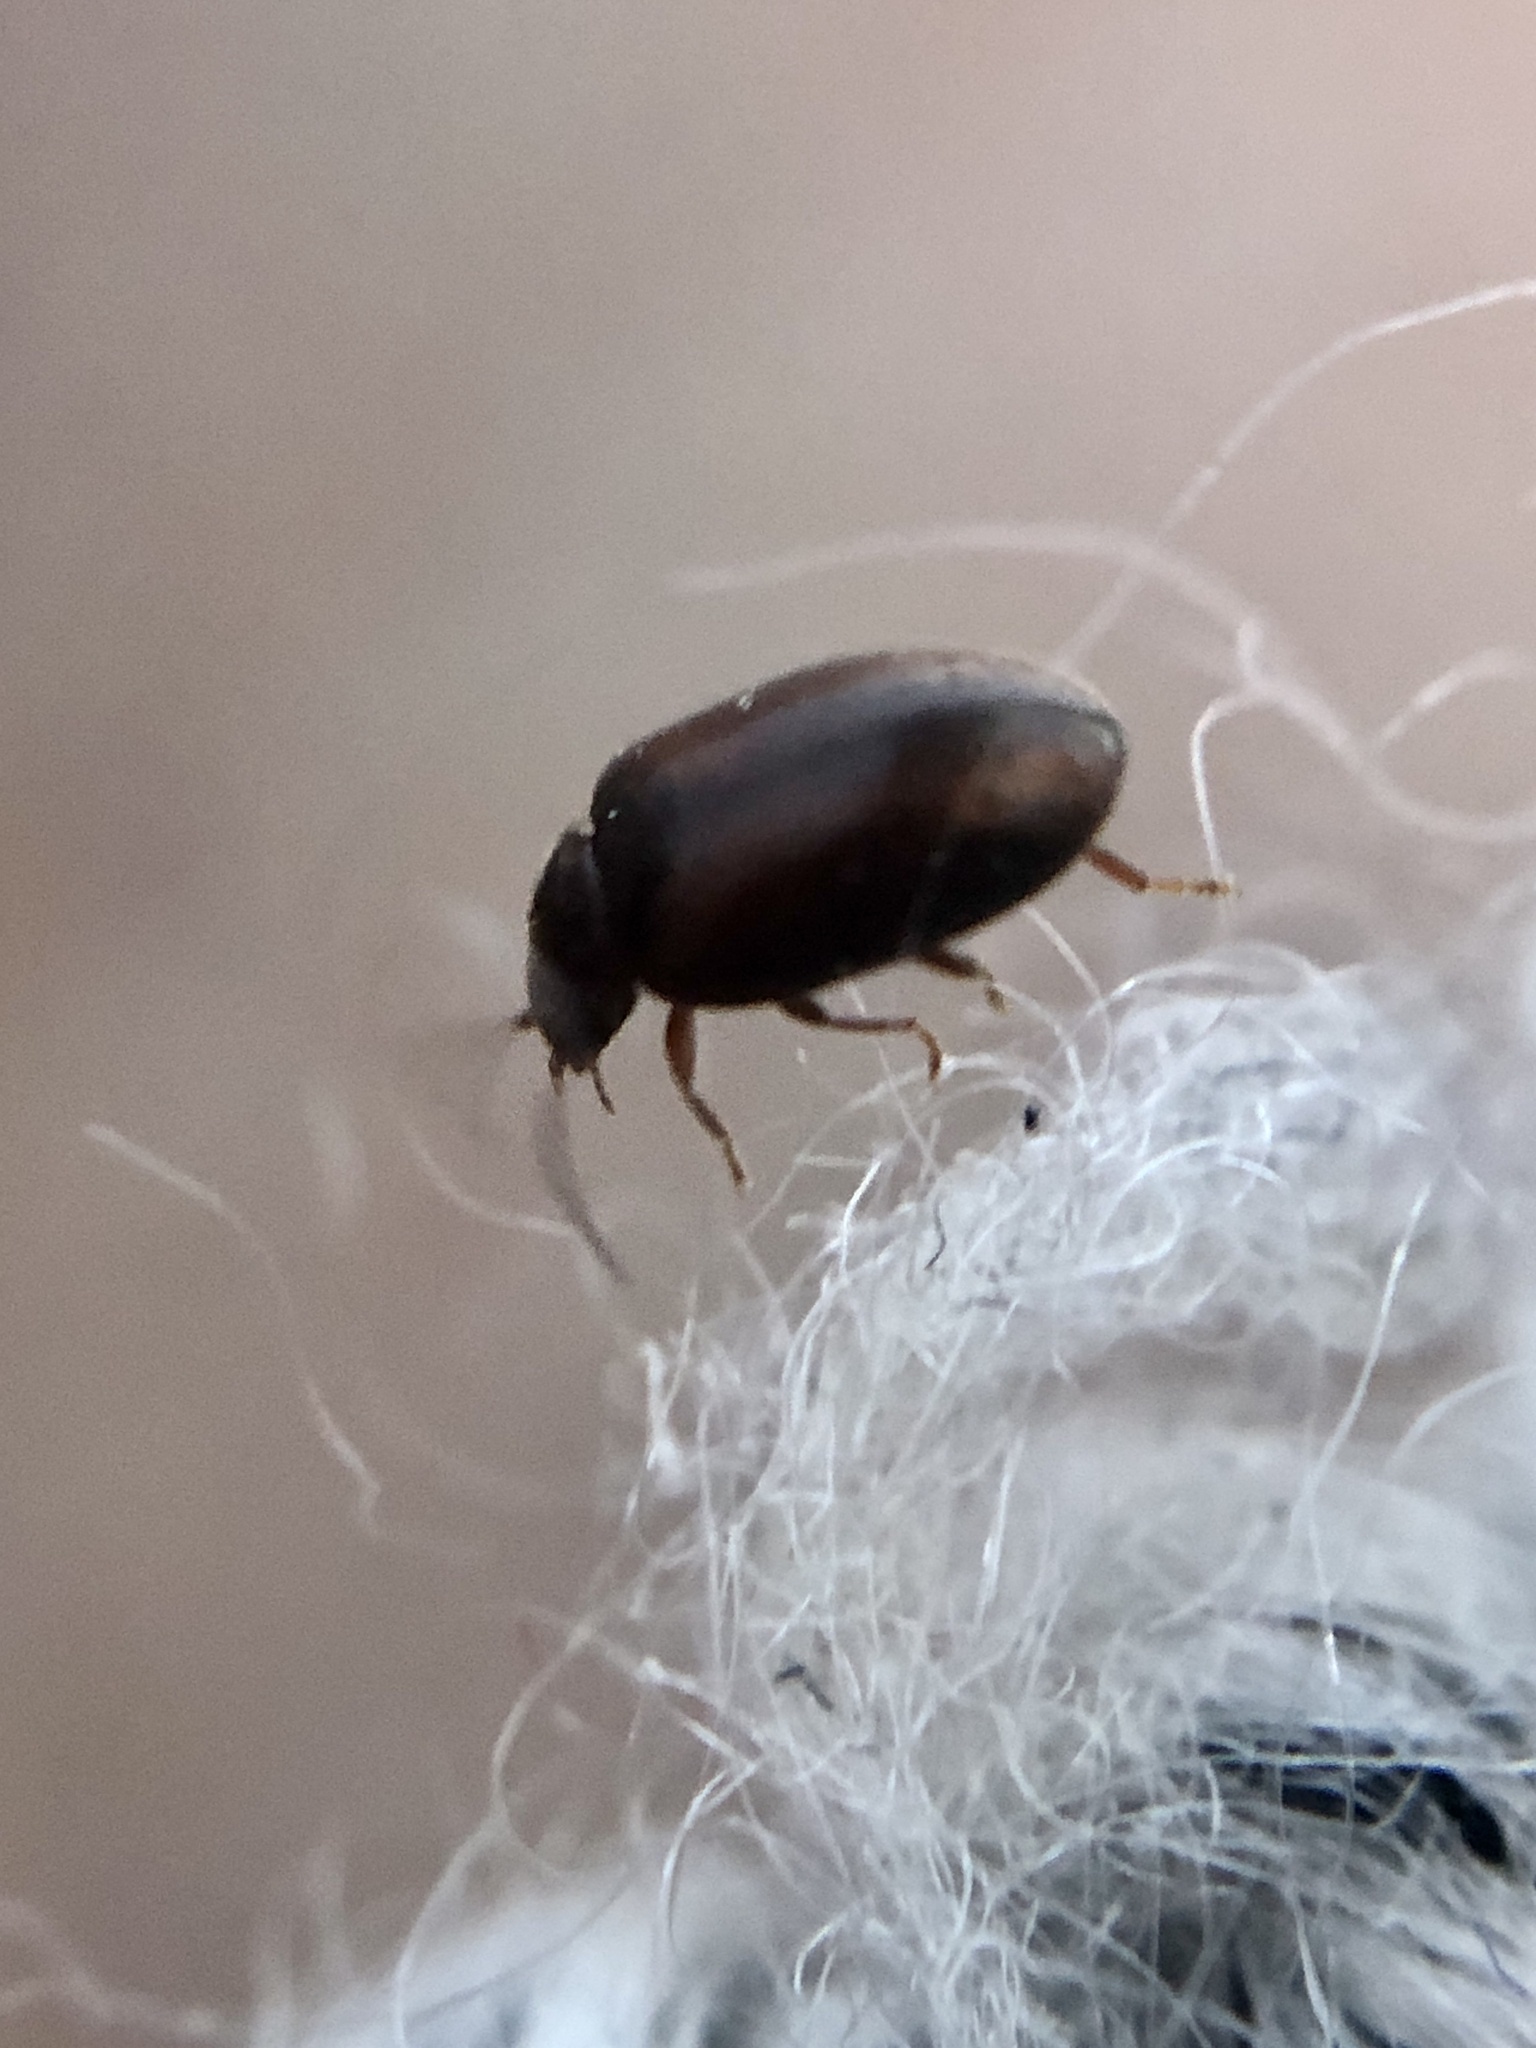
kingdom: Animalia
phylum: Arthropoda
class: Insecta
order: Coleoptera
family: Scirtidae
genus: Contacyphon
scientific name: Contacyphon
